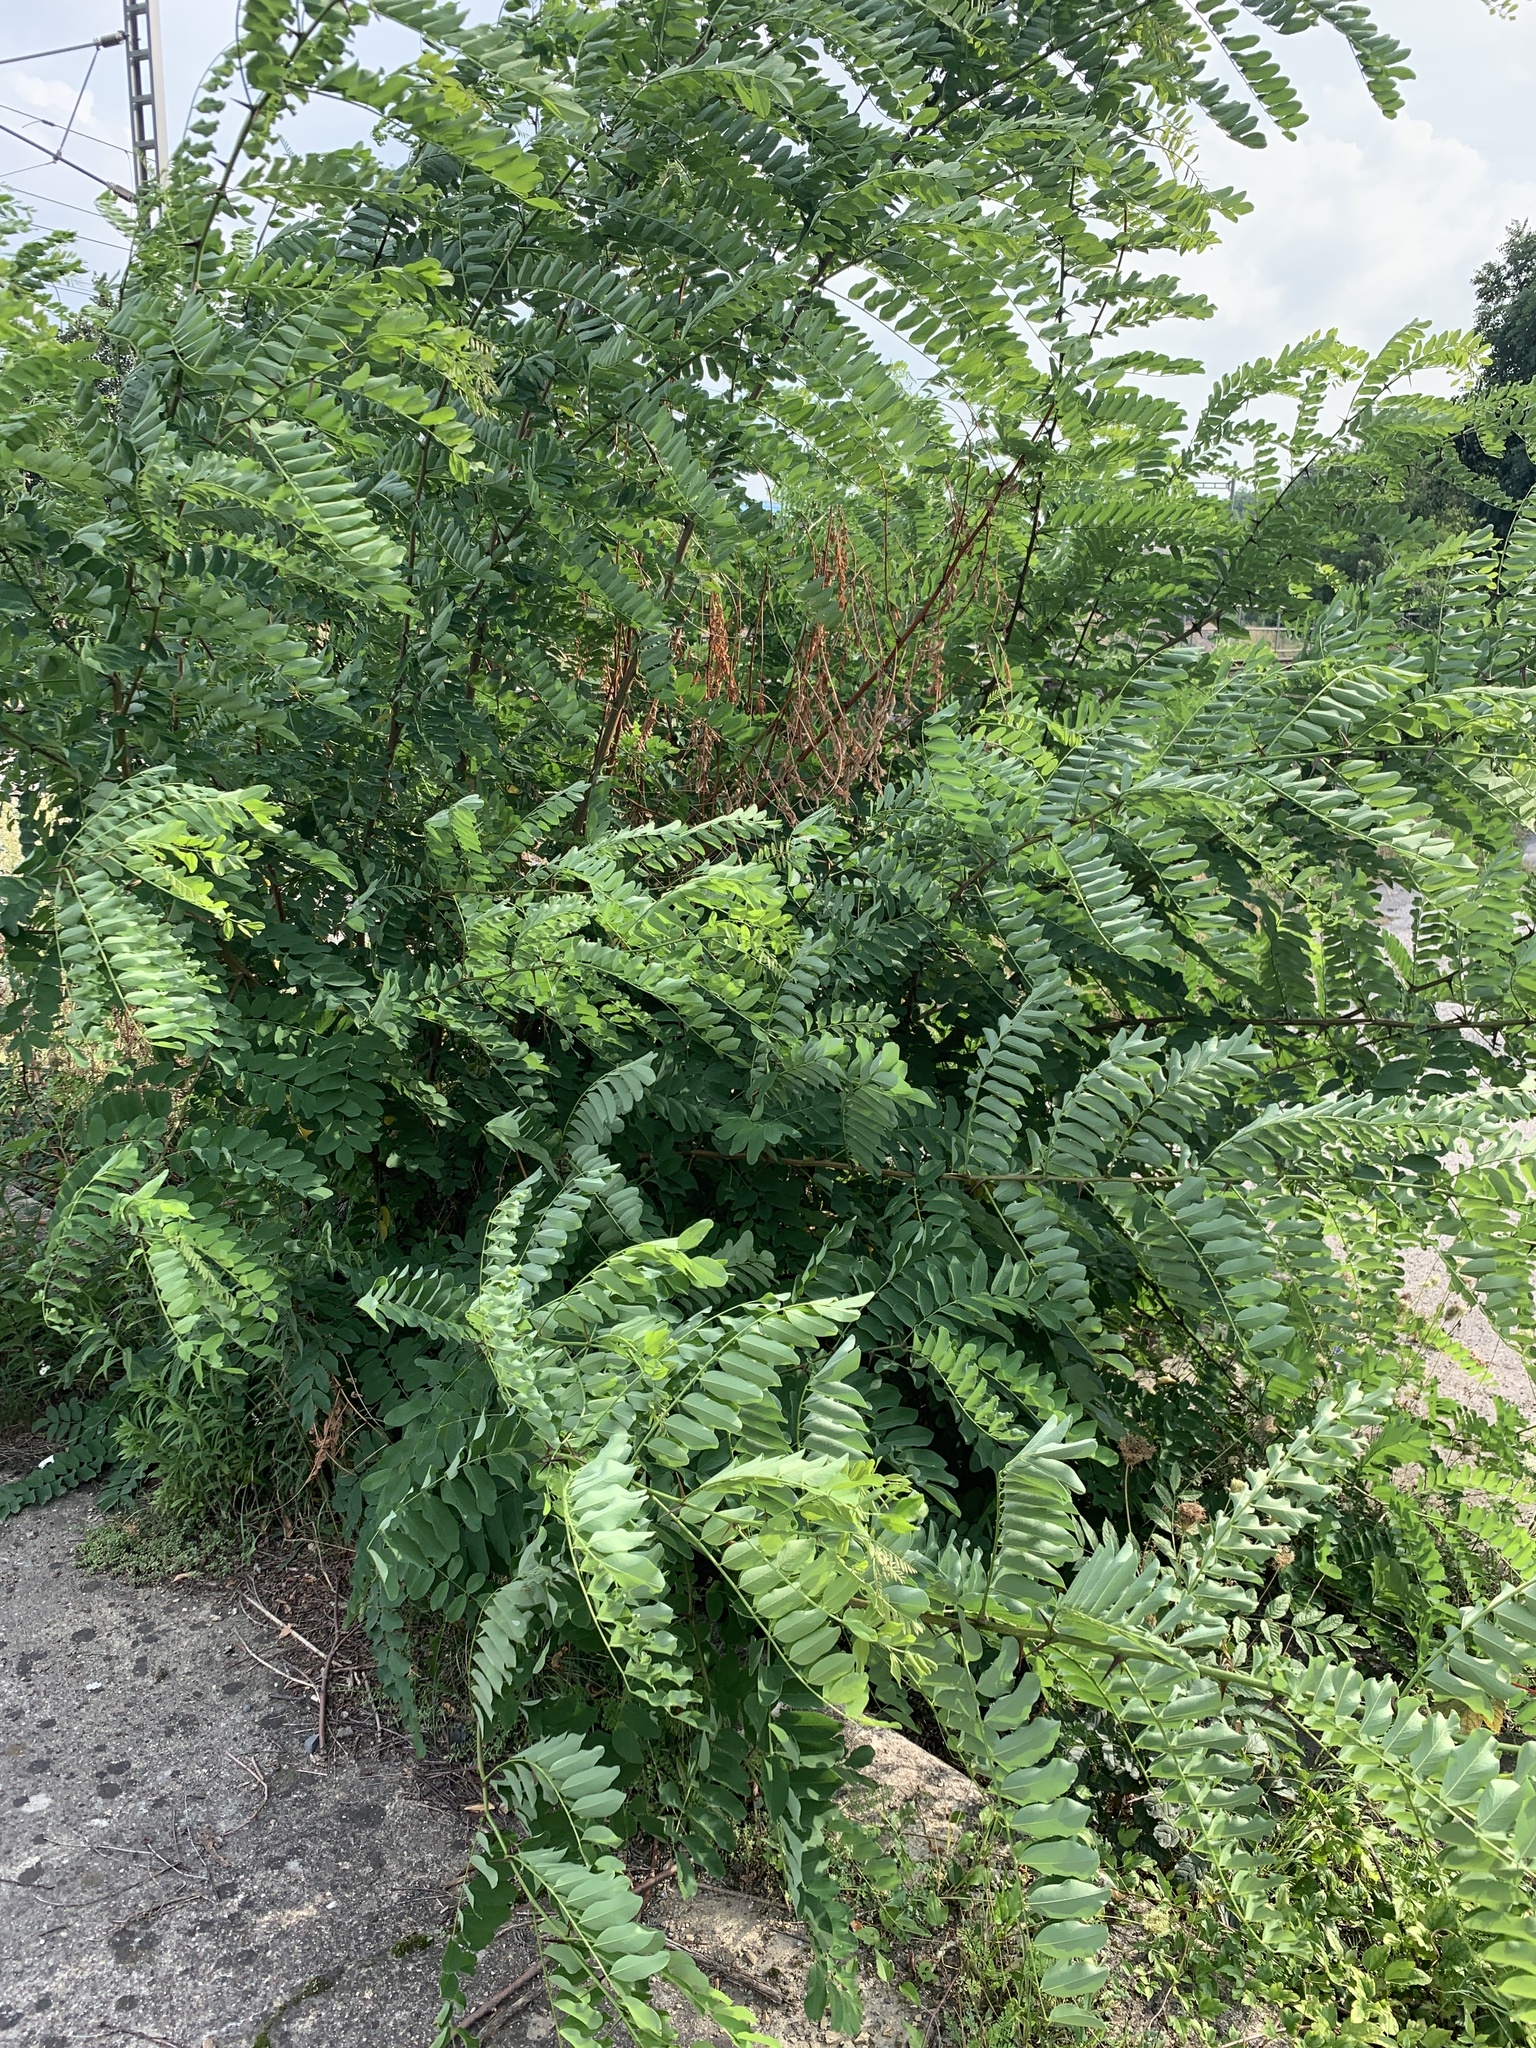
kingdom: Plantae
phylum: Tracheophyta
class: Magnoliopsida
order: Fabales
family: Fabaceae
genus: Robinia
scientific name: Robinia pseudoacacia
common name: Black locust
